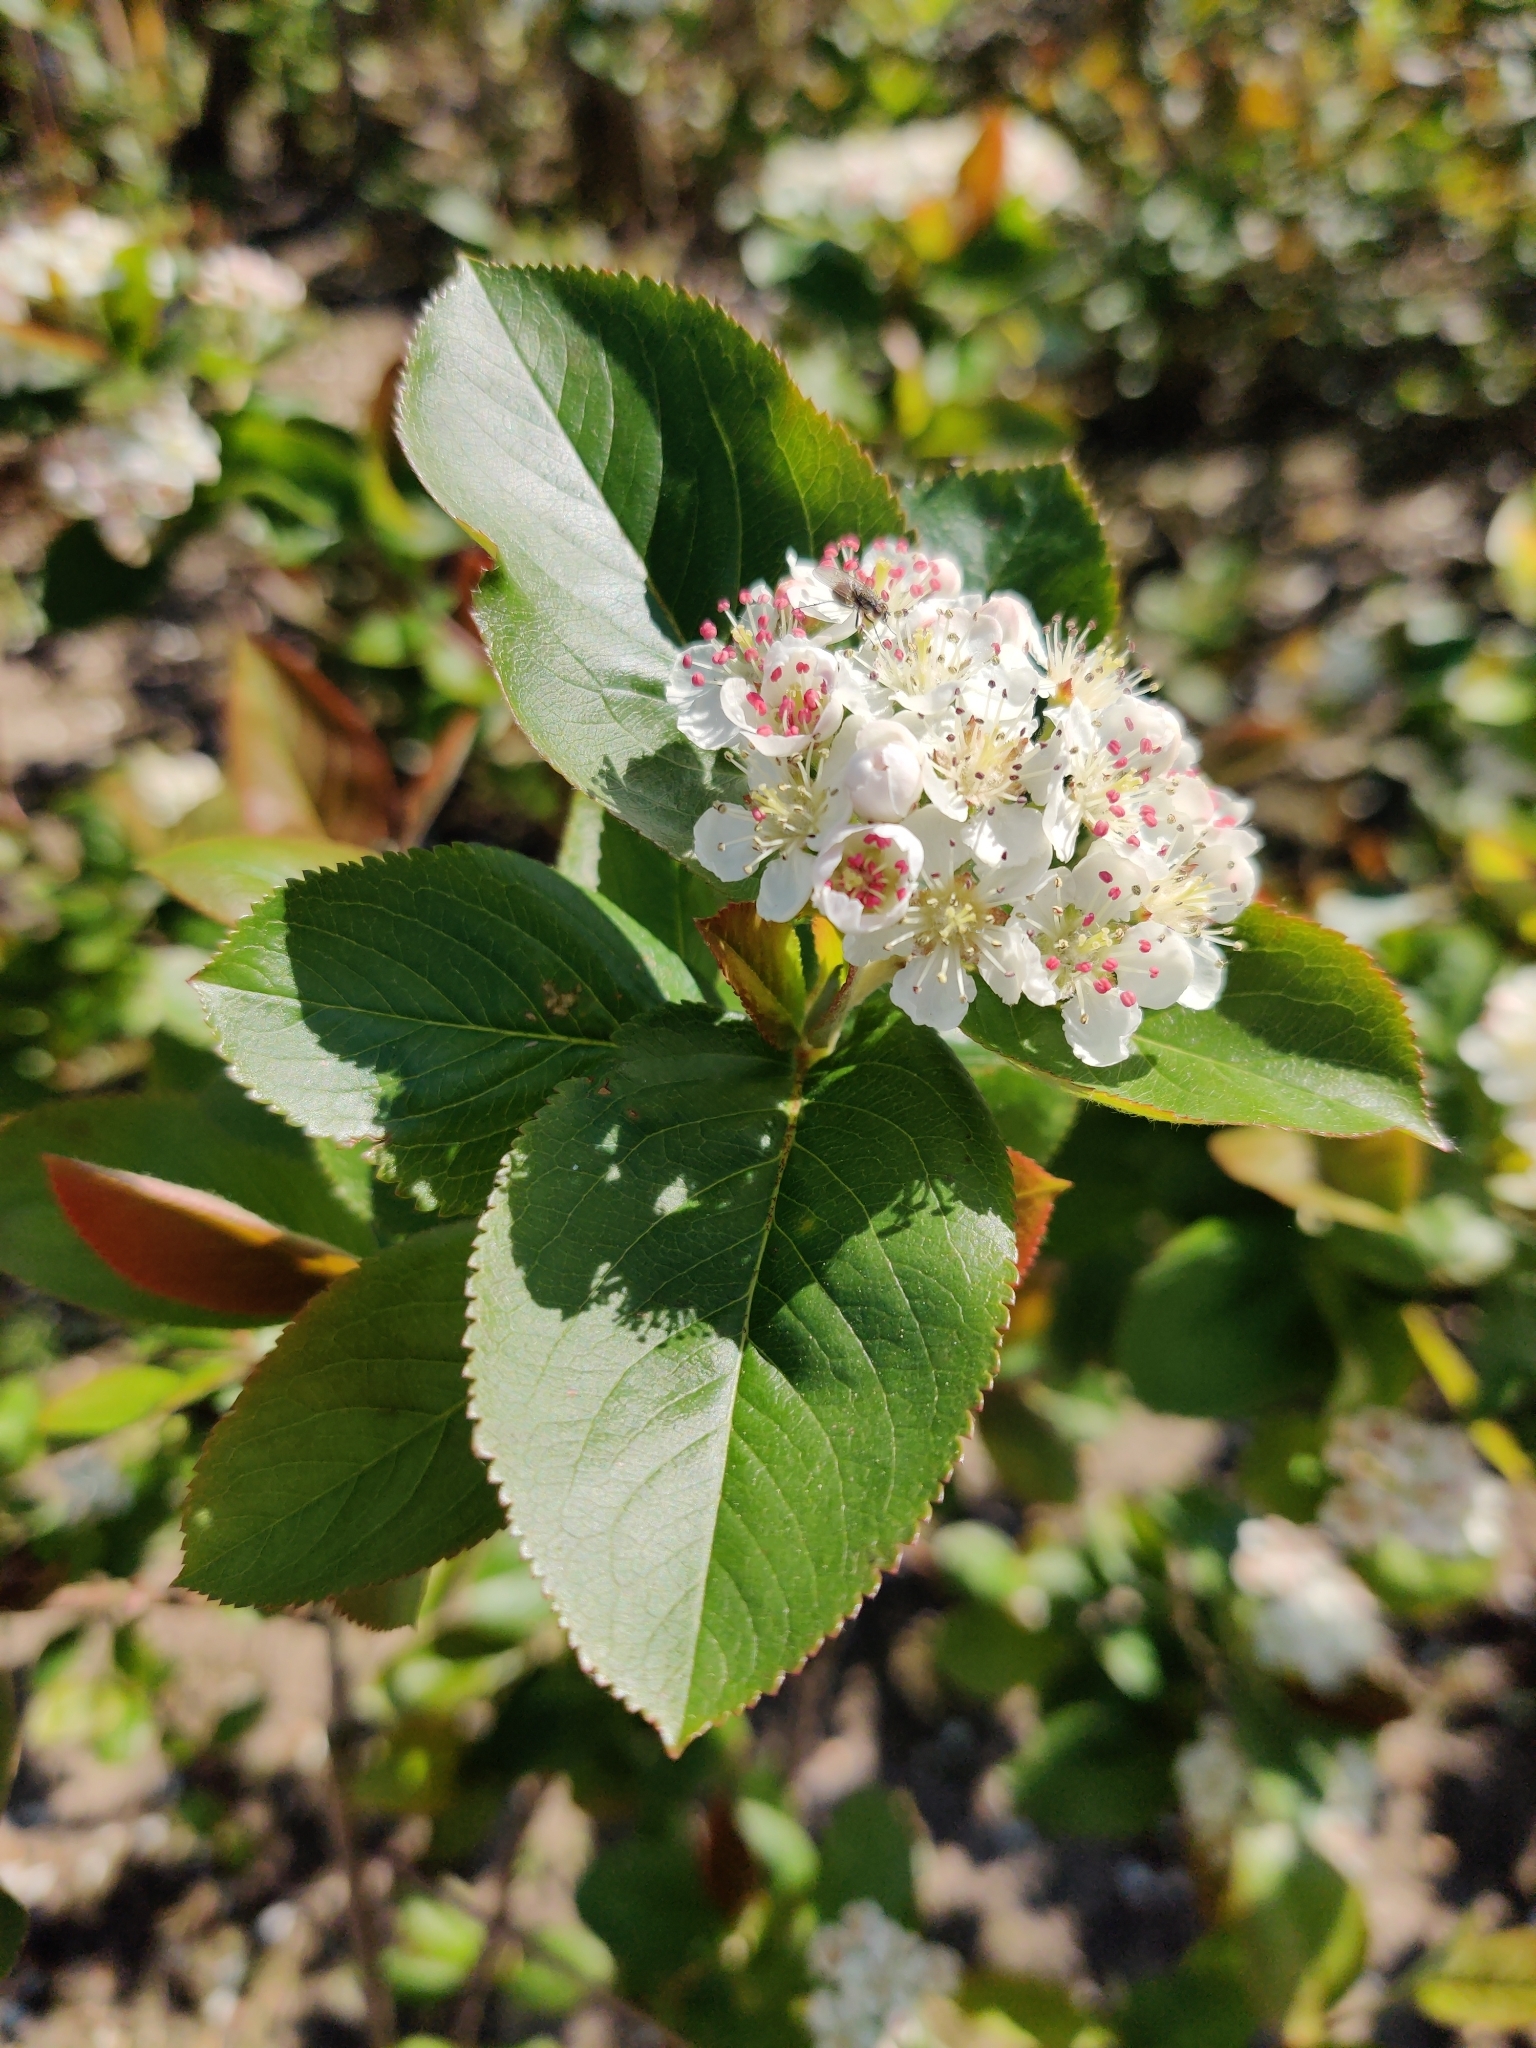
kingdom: Plantae
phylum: Tracheophyta
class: Magnoliopsida
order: Rosales
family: Rosaceae
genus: Aronia
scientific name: Aronia melanocarpa
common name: Black chokeberry
